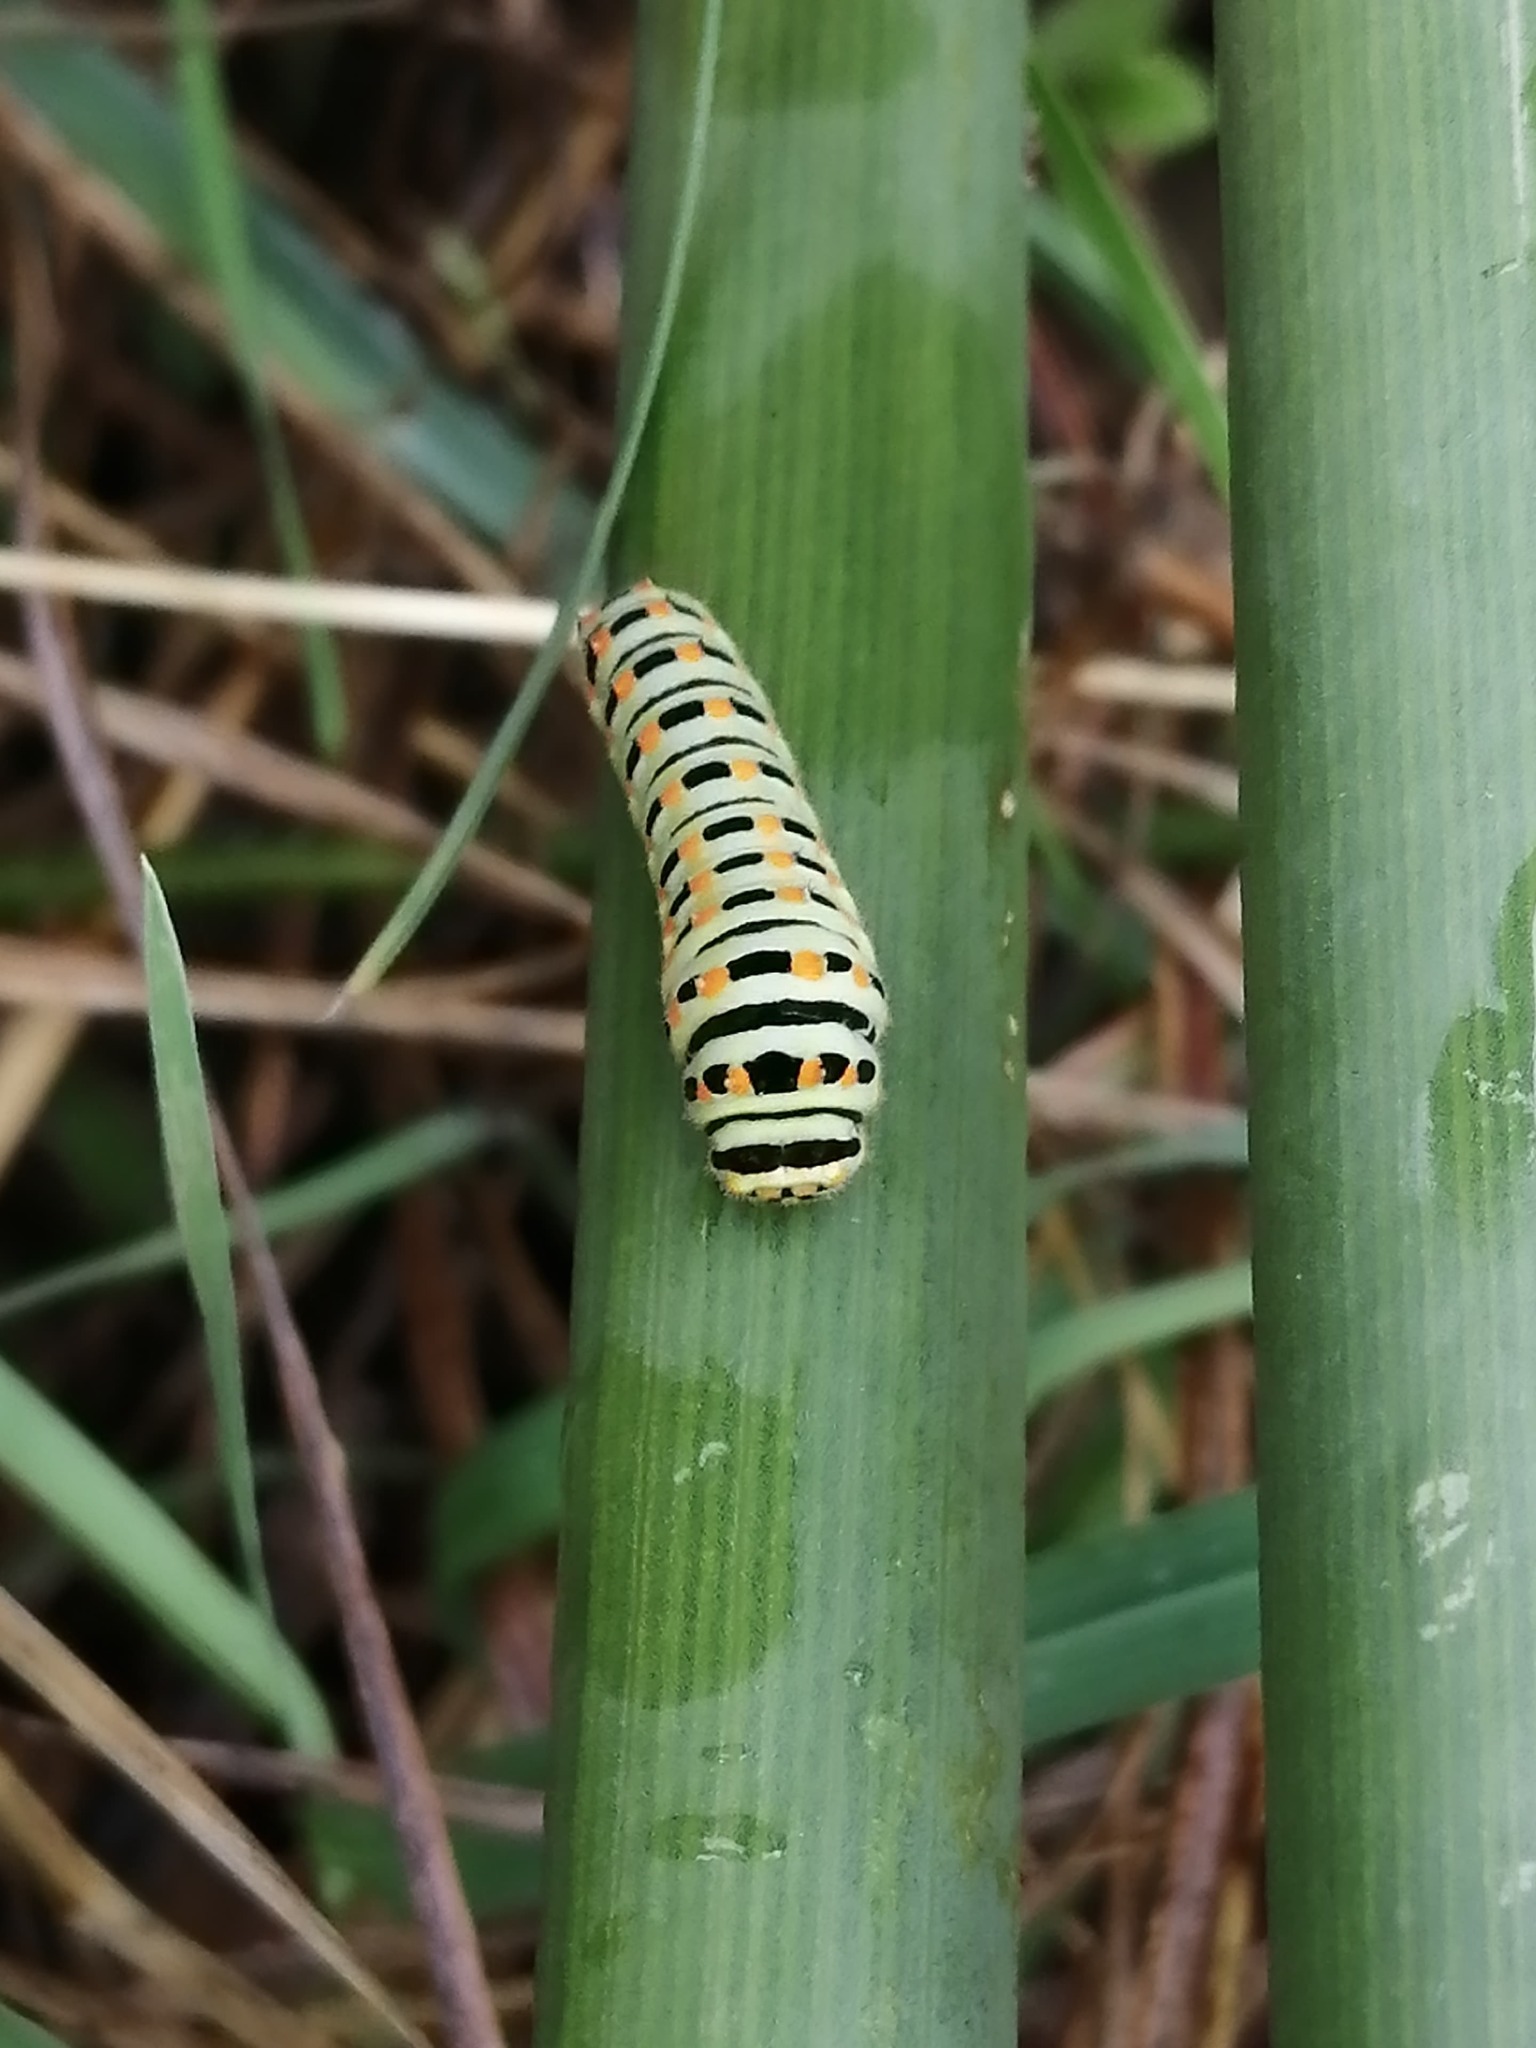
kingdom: Animalia
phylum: Arthropoda
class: Insecta
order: Lepidoptera
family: Papilionidae
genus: Papilio
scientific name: Papilio machaon
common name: Swallowtail
